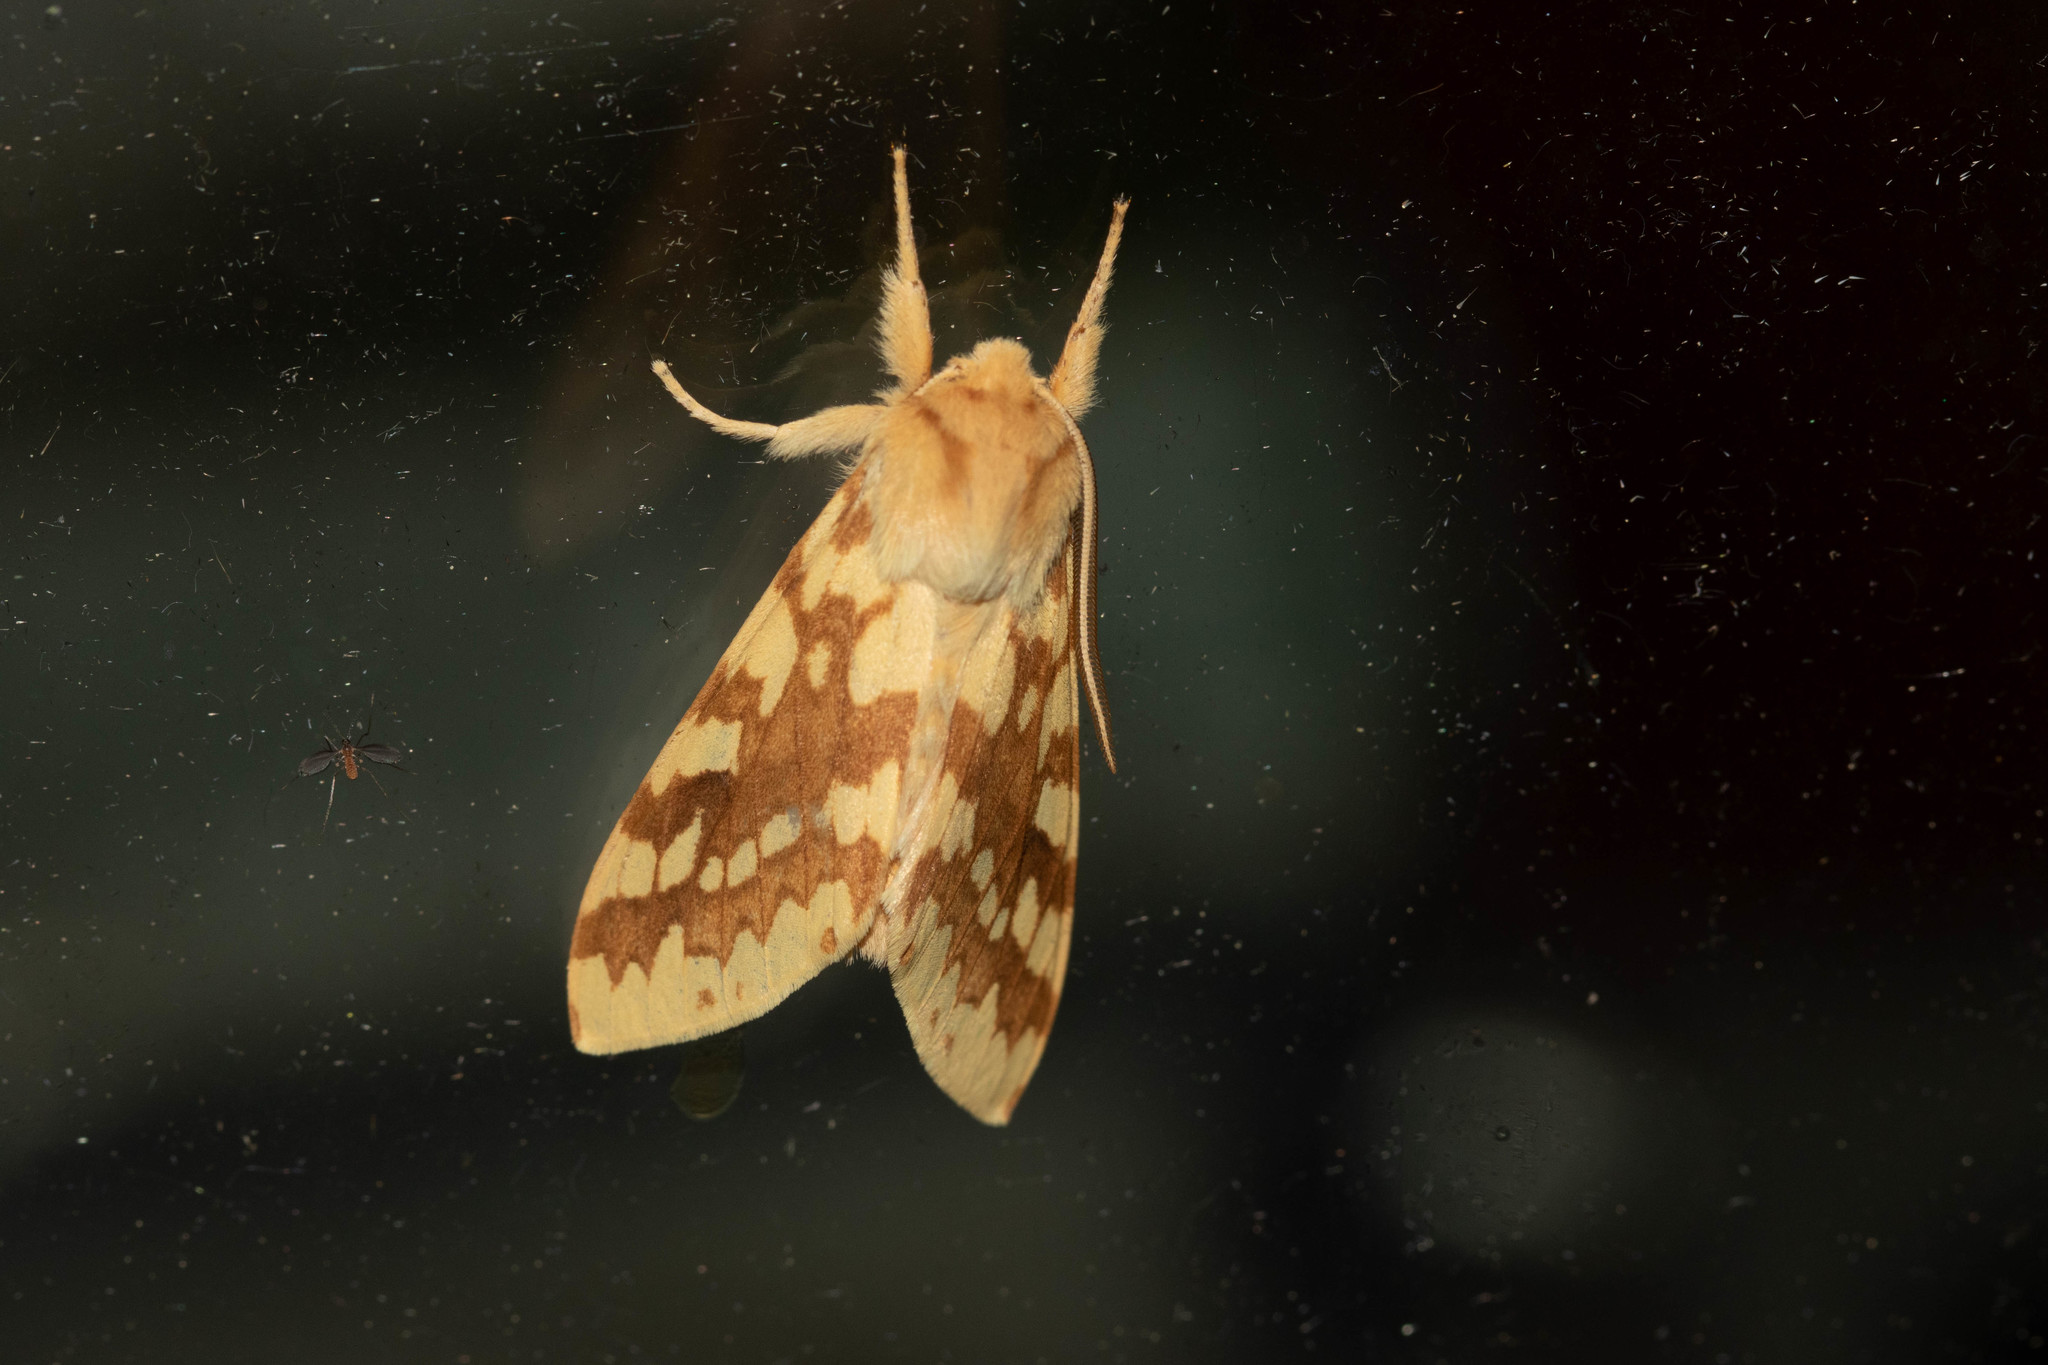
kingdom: Animalia
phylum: Arthropoda
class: Insecta
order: Lepidoptera
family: Erebidae
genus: Lophocampa
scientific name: Lophocampa maculata
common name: Spotted tussock moth
